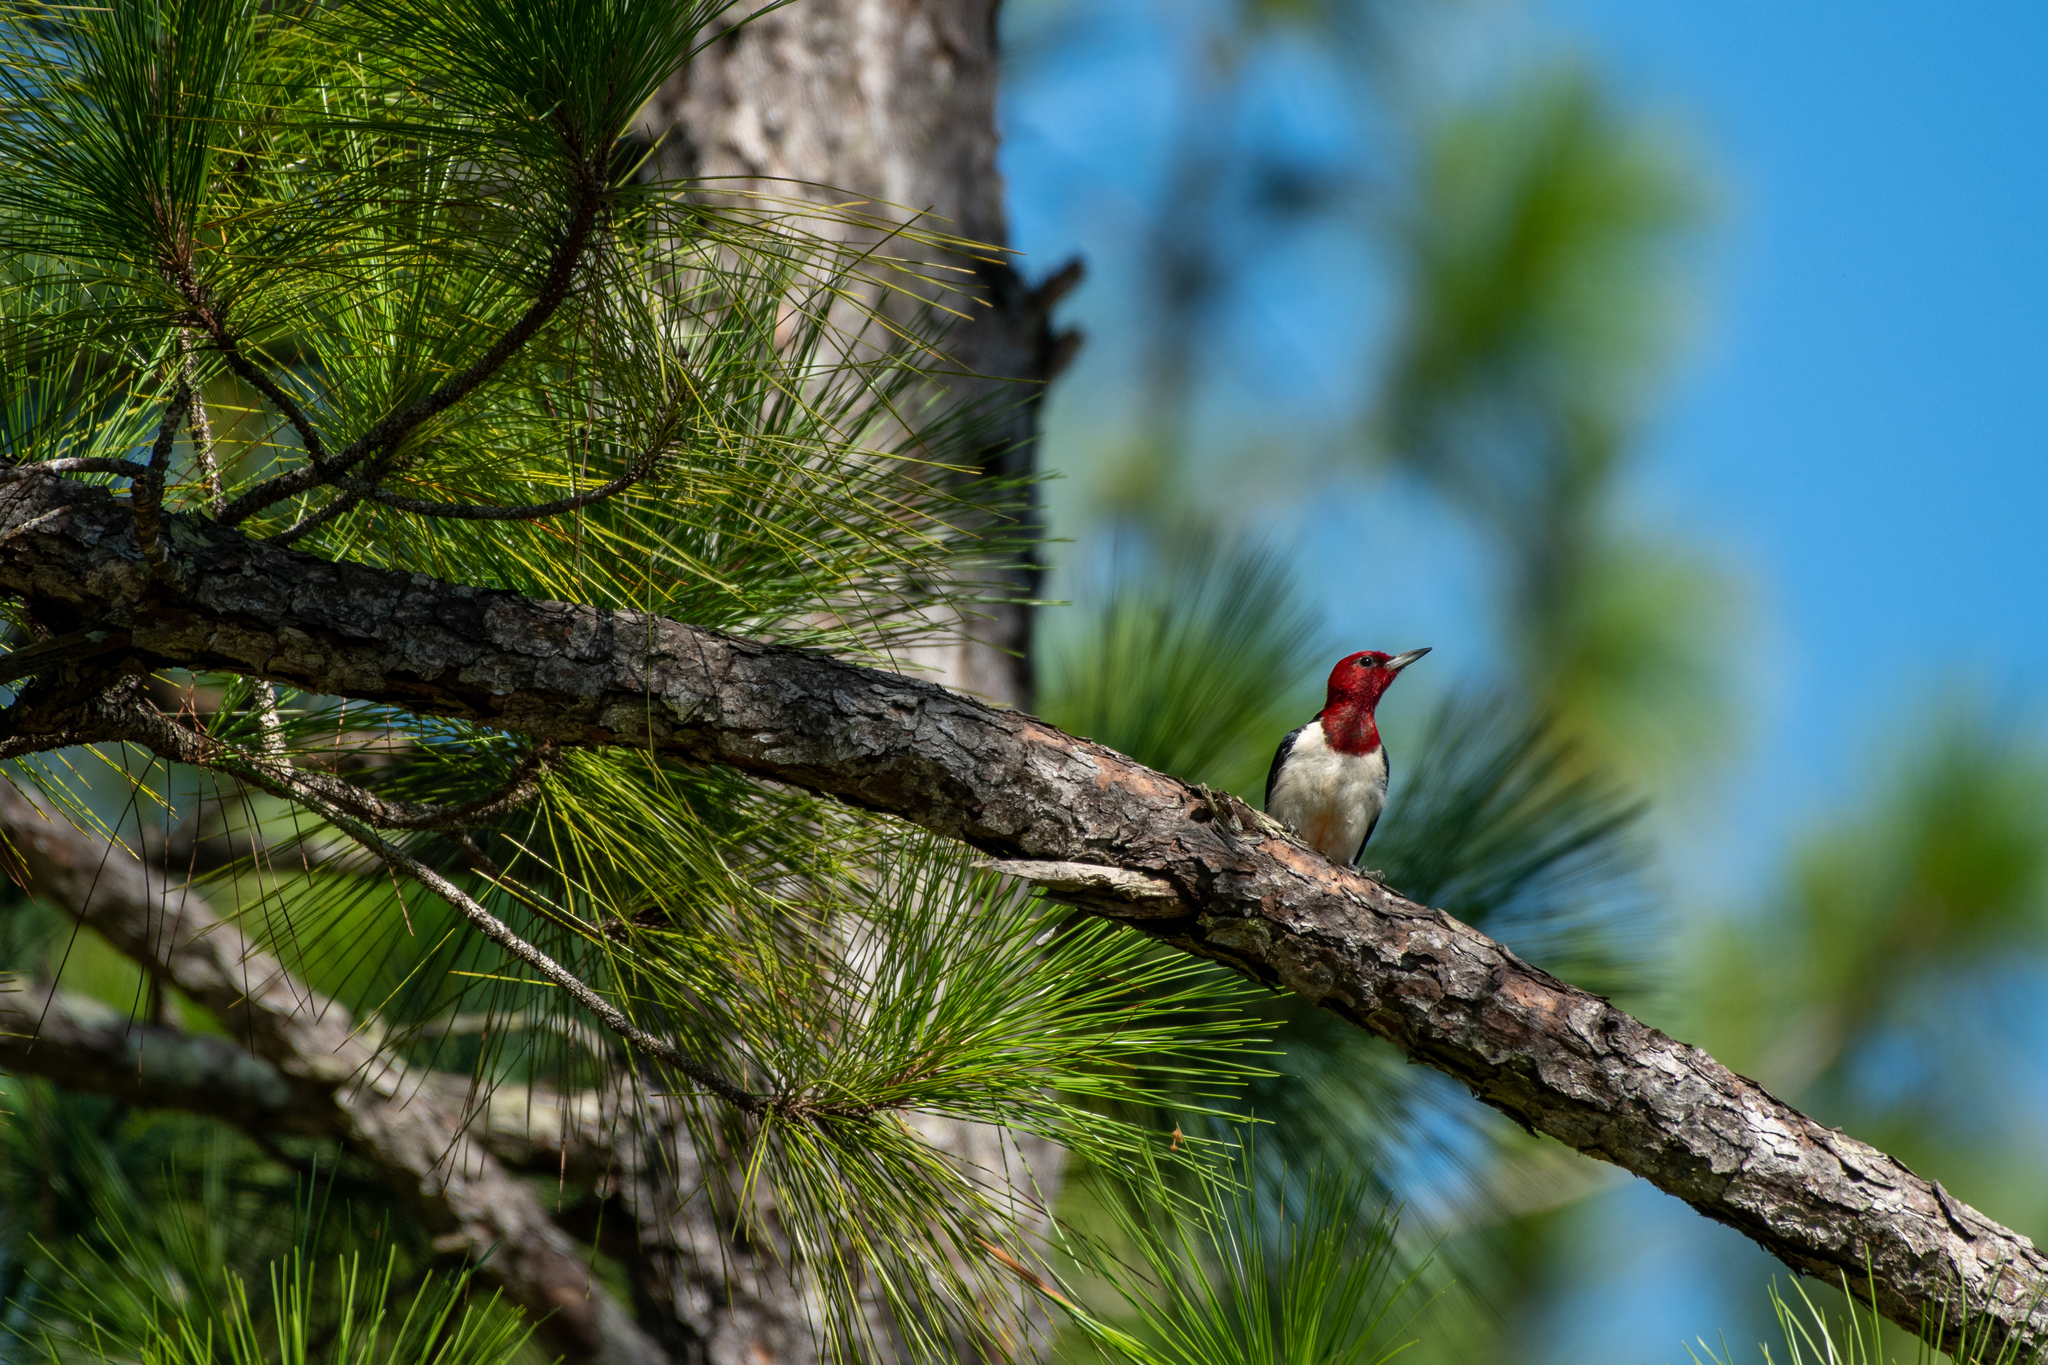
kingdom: Animalia
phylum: Chordata
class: Aves
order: Piciformes
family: Picidae
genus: Melanerpes
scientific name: Melanerpes erythrocephalus
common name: Red-headed woodpecker
